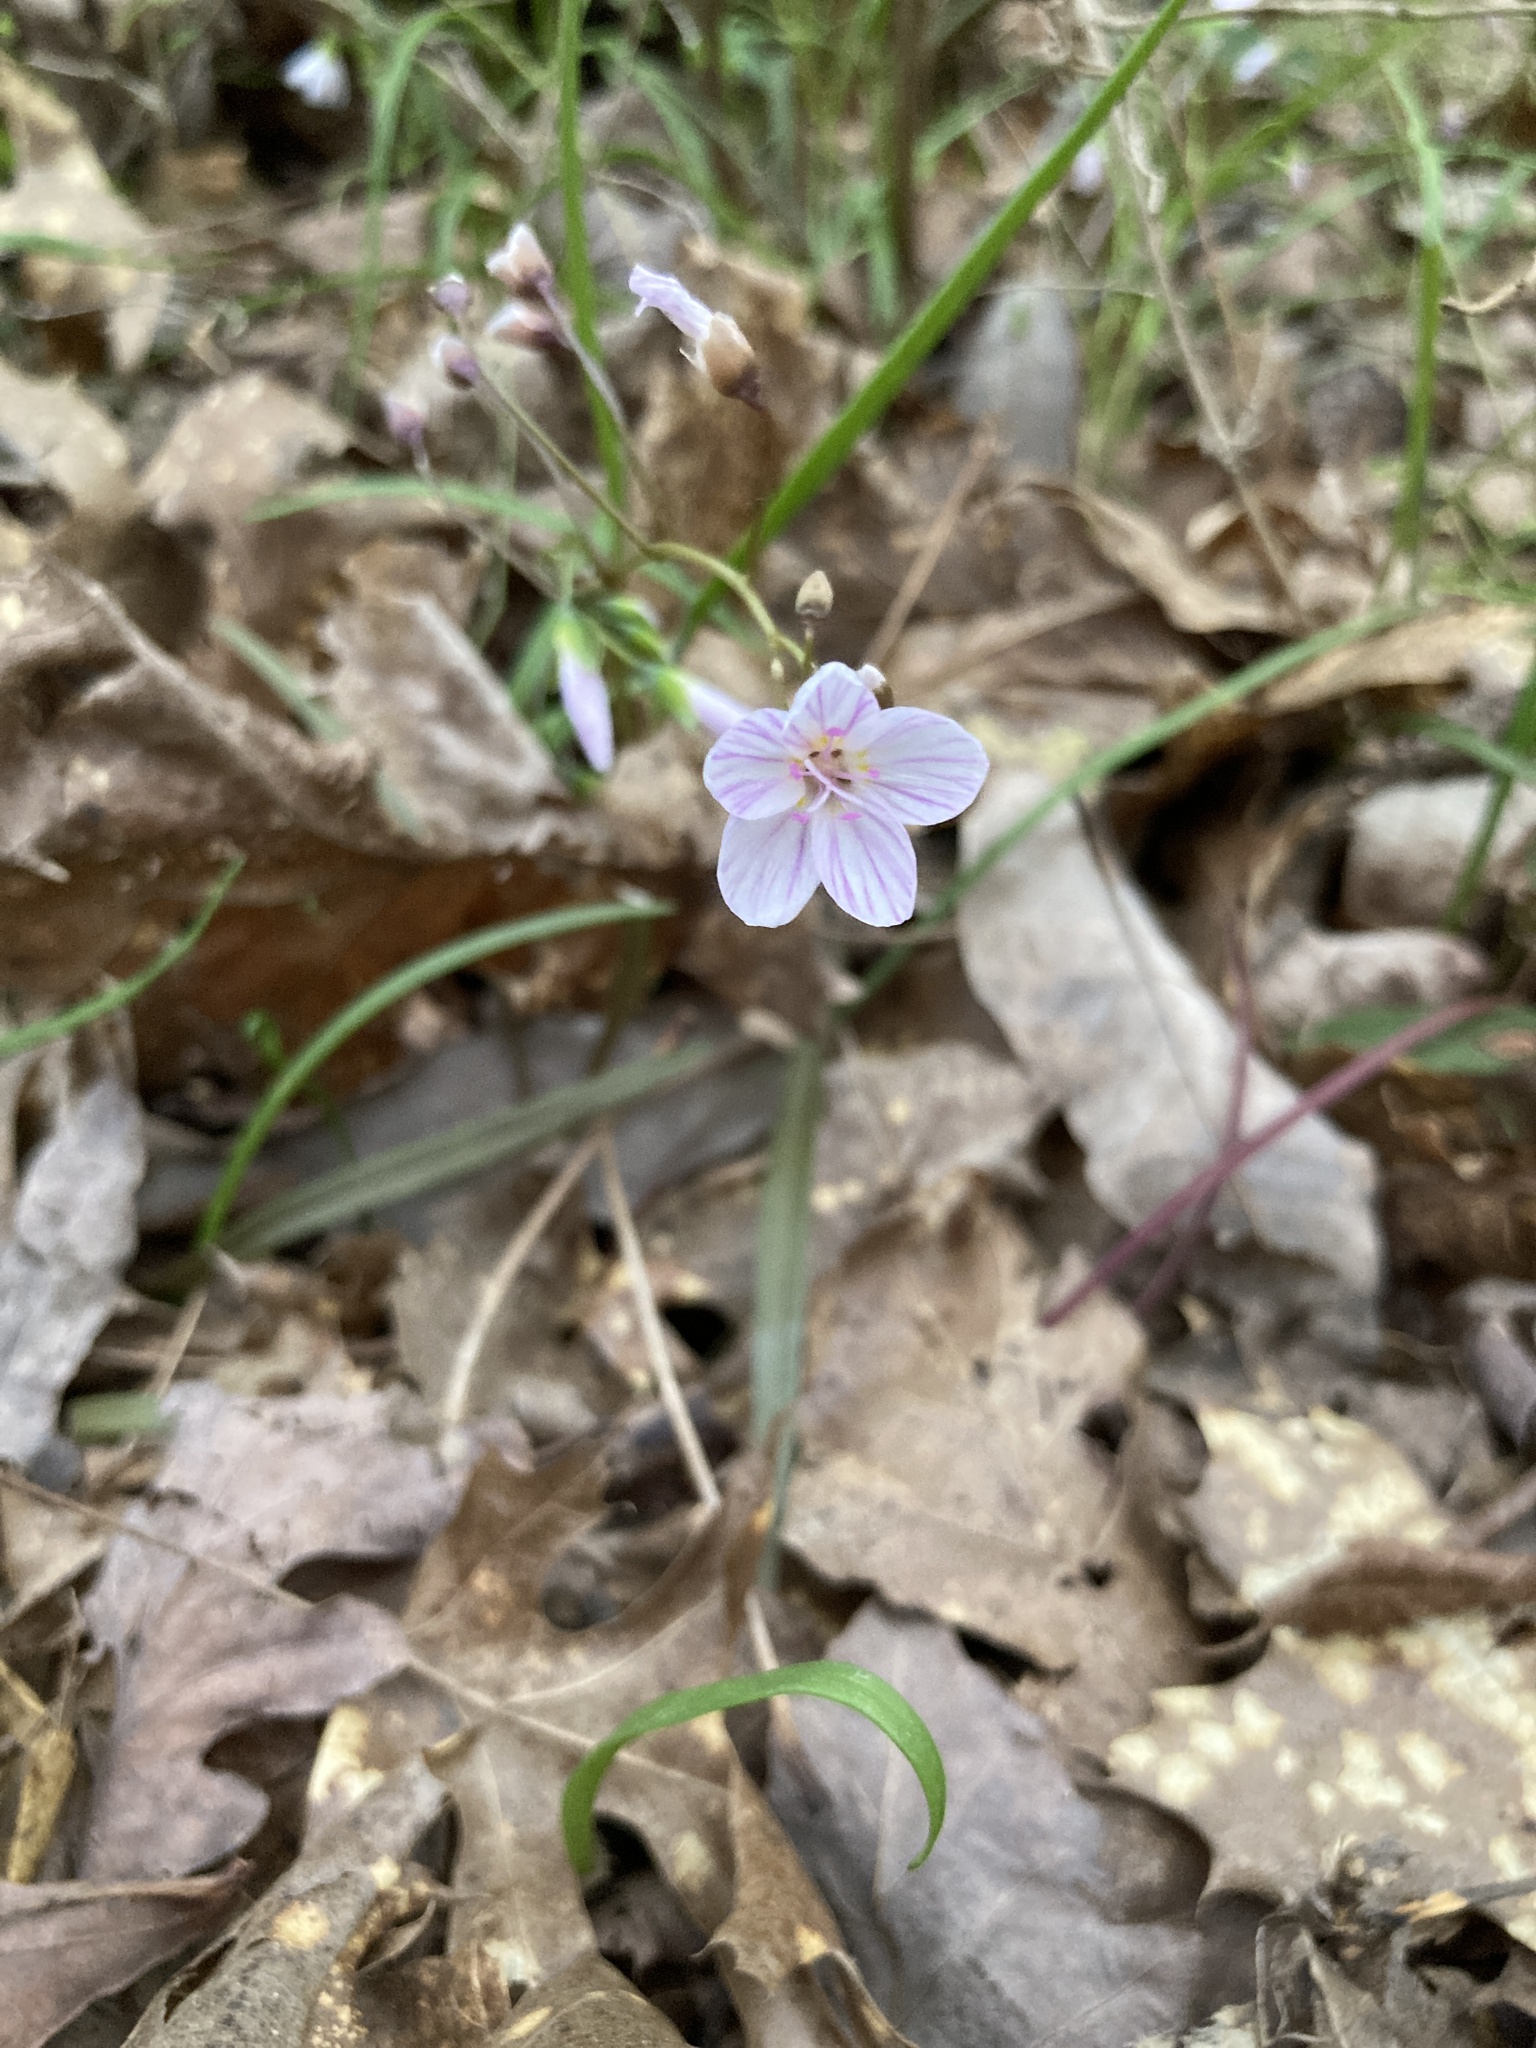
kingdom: Plantae
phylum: Tracheophyta
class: Magnoliopsida
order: Caryophyllales
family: Montiaceae
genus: Claytonia
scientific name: Claytonia virginica
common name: Virginia springbeauty
